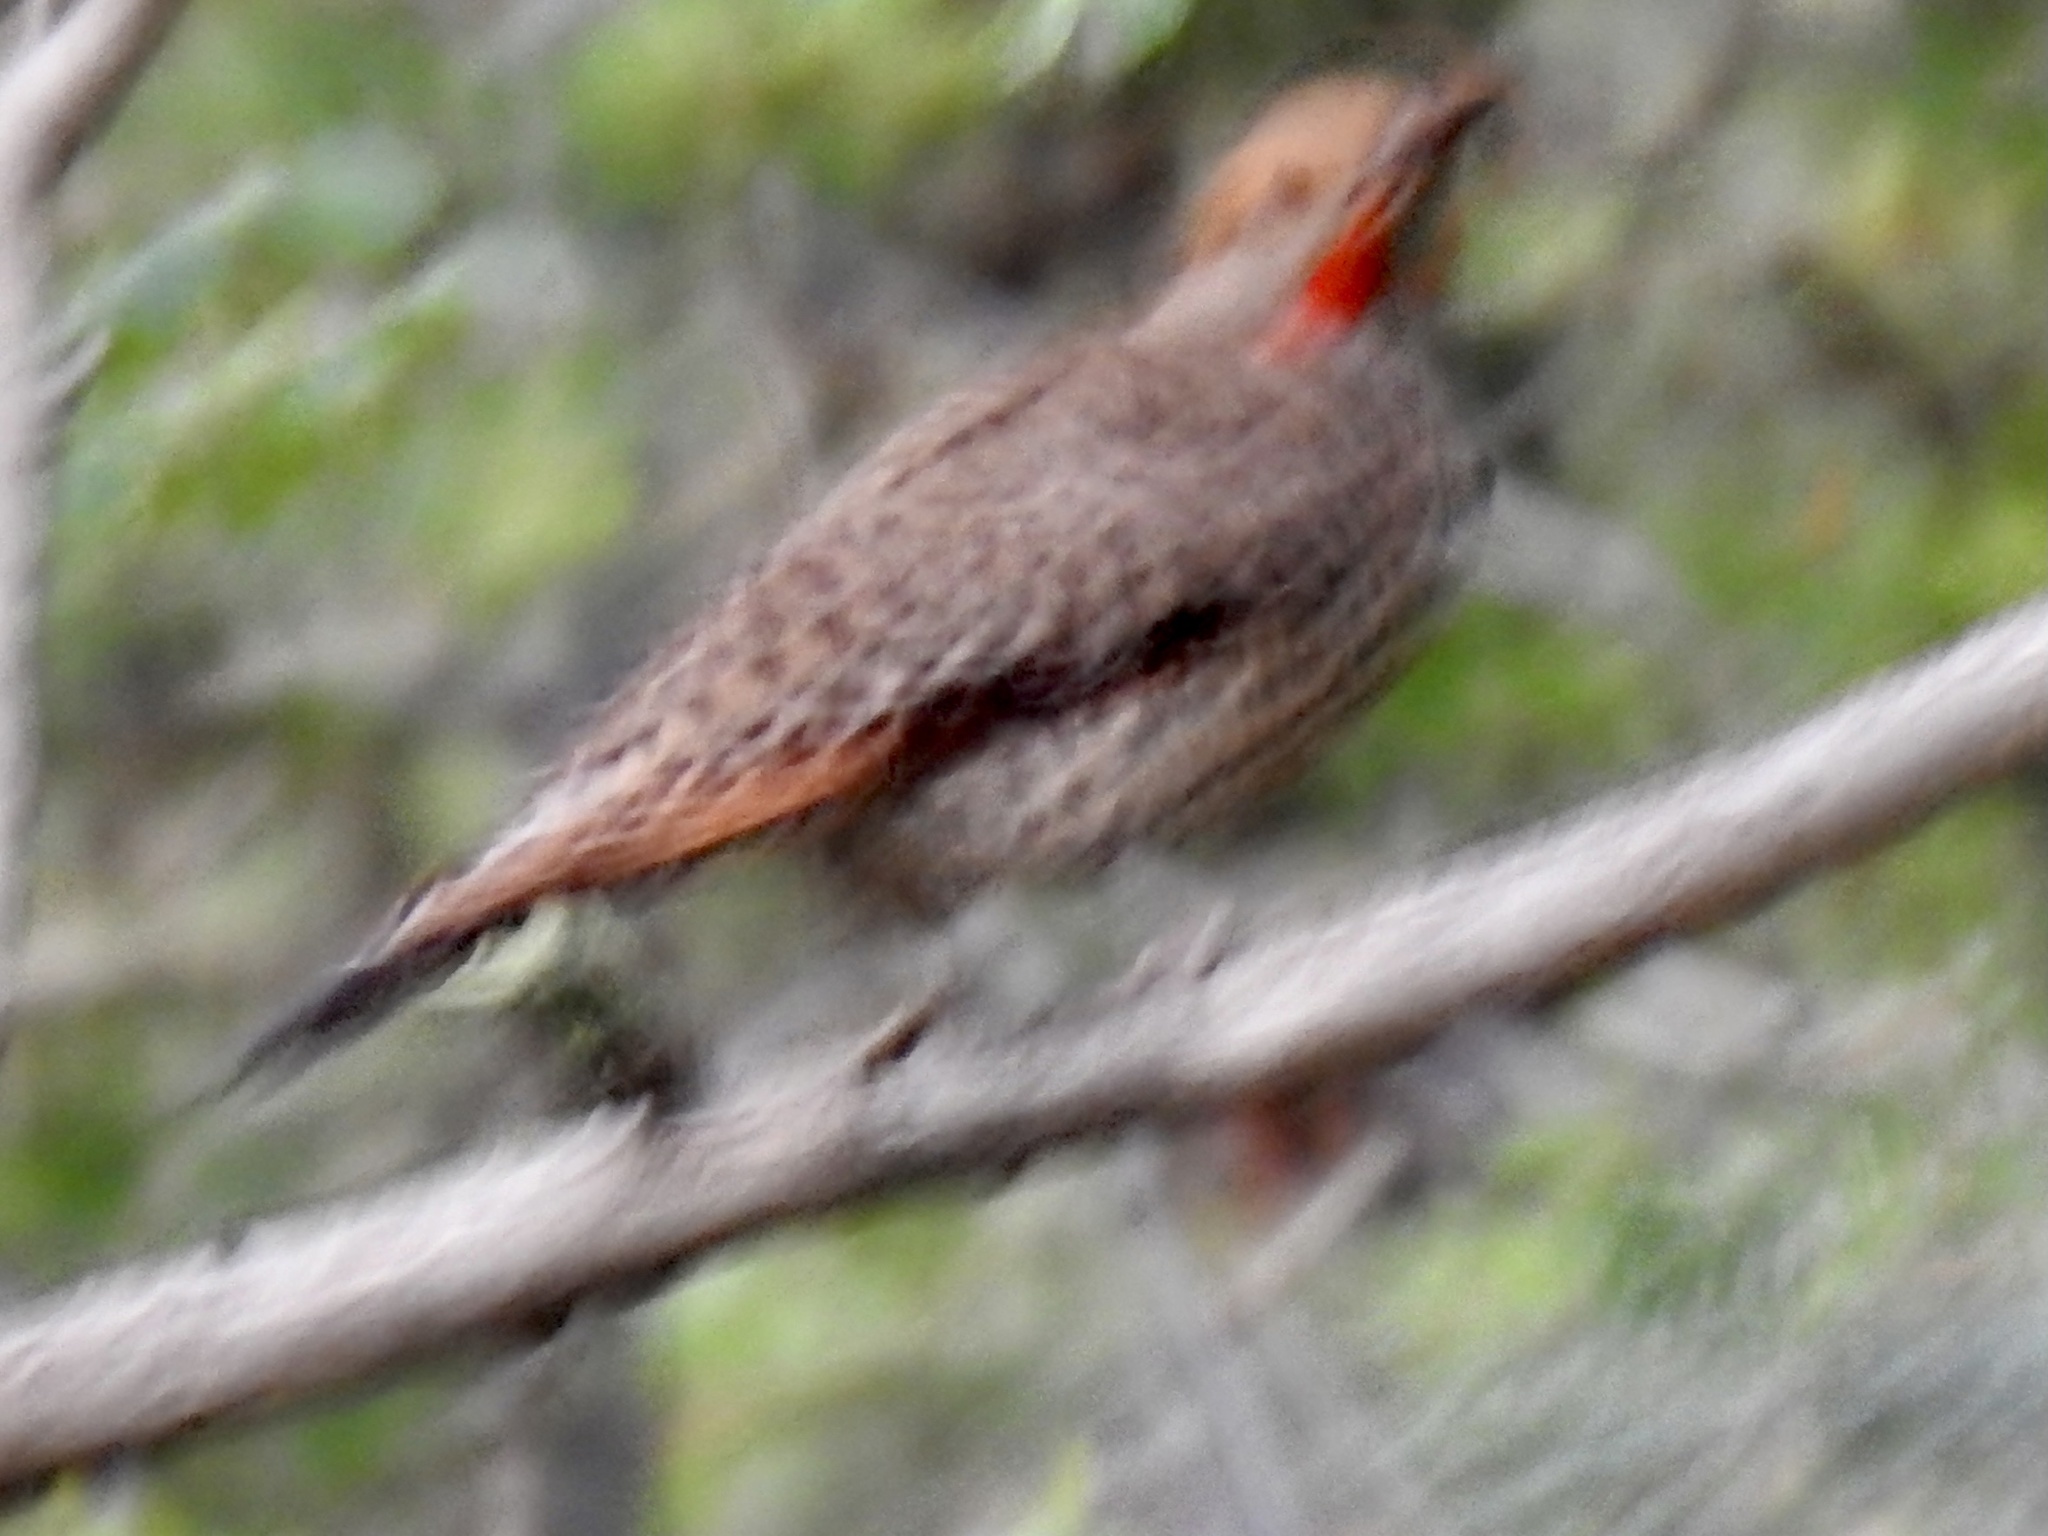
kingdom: Animalia
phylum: Chordata
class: Aves
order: Piciformes
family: Picidae
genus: Colaptes
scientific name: Colaptes auratus
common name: Northern flicker
